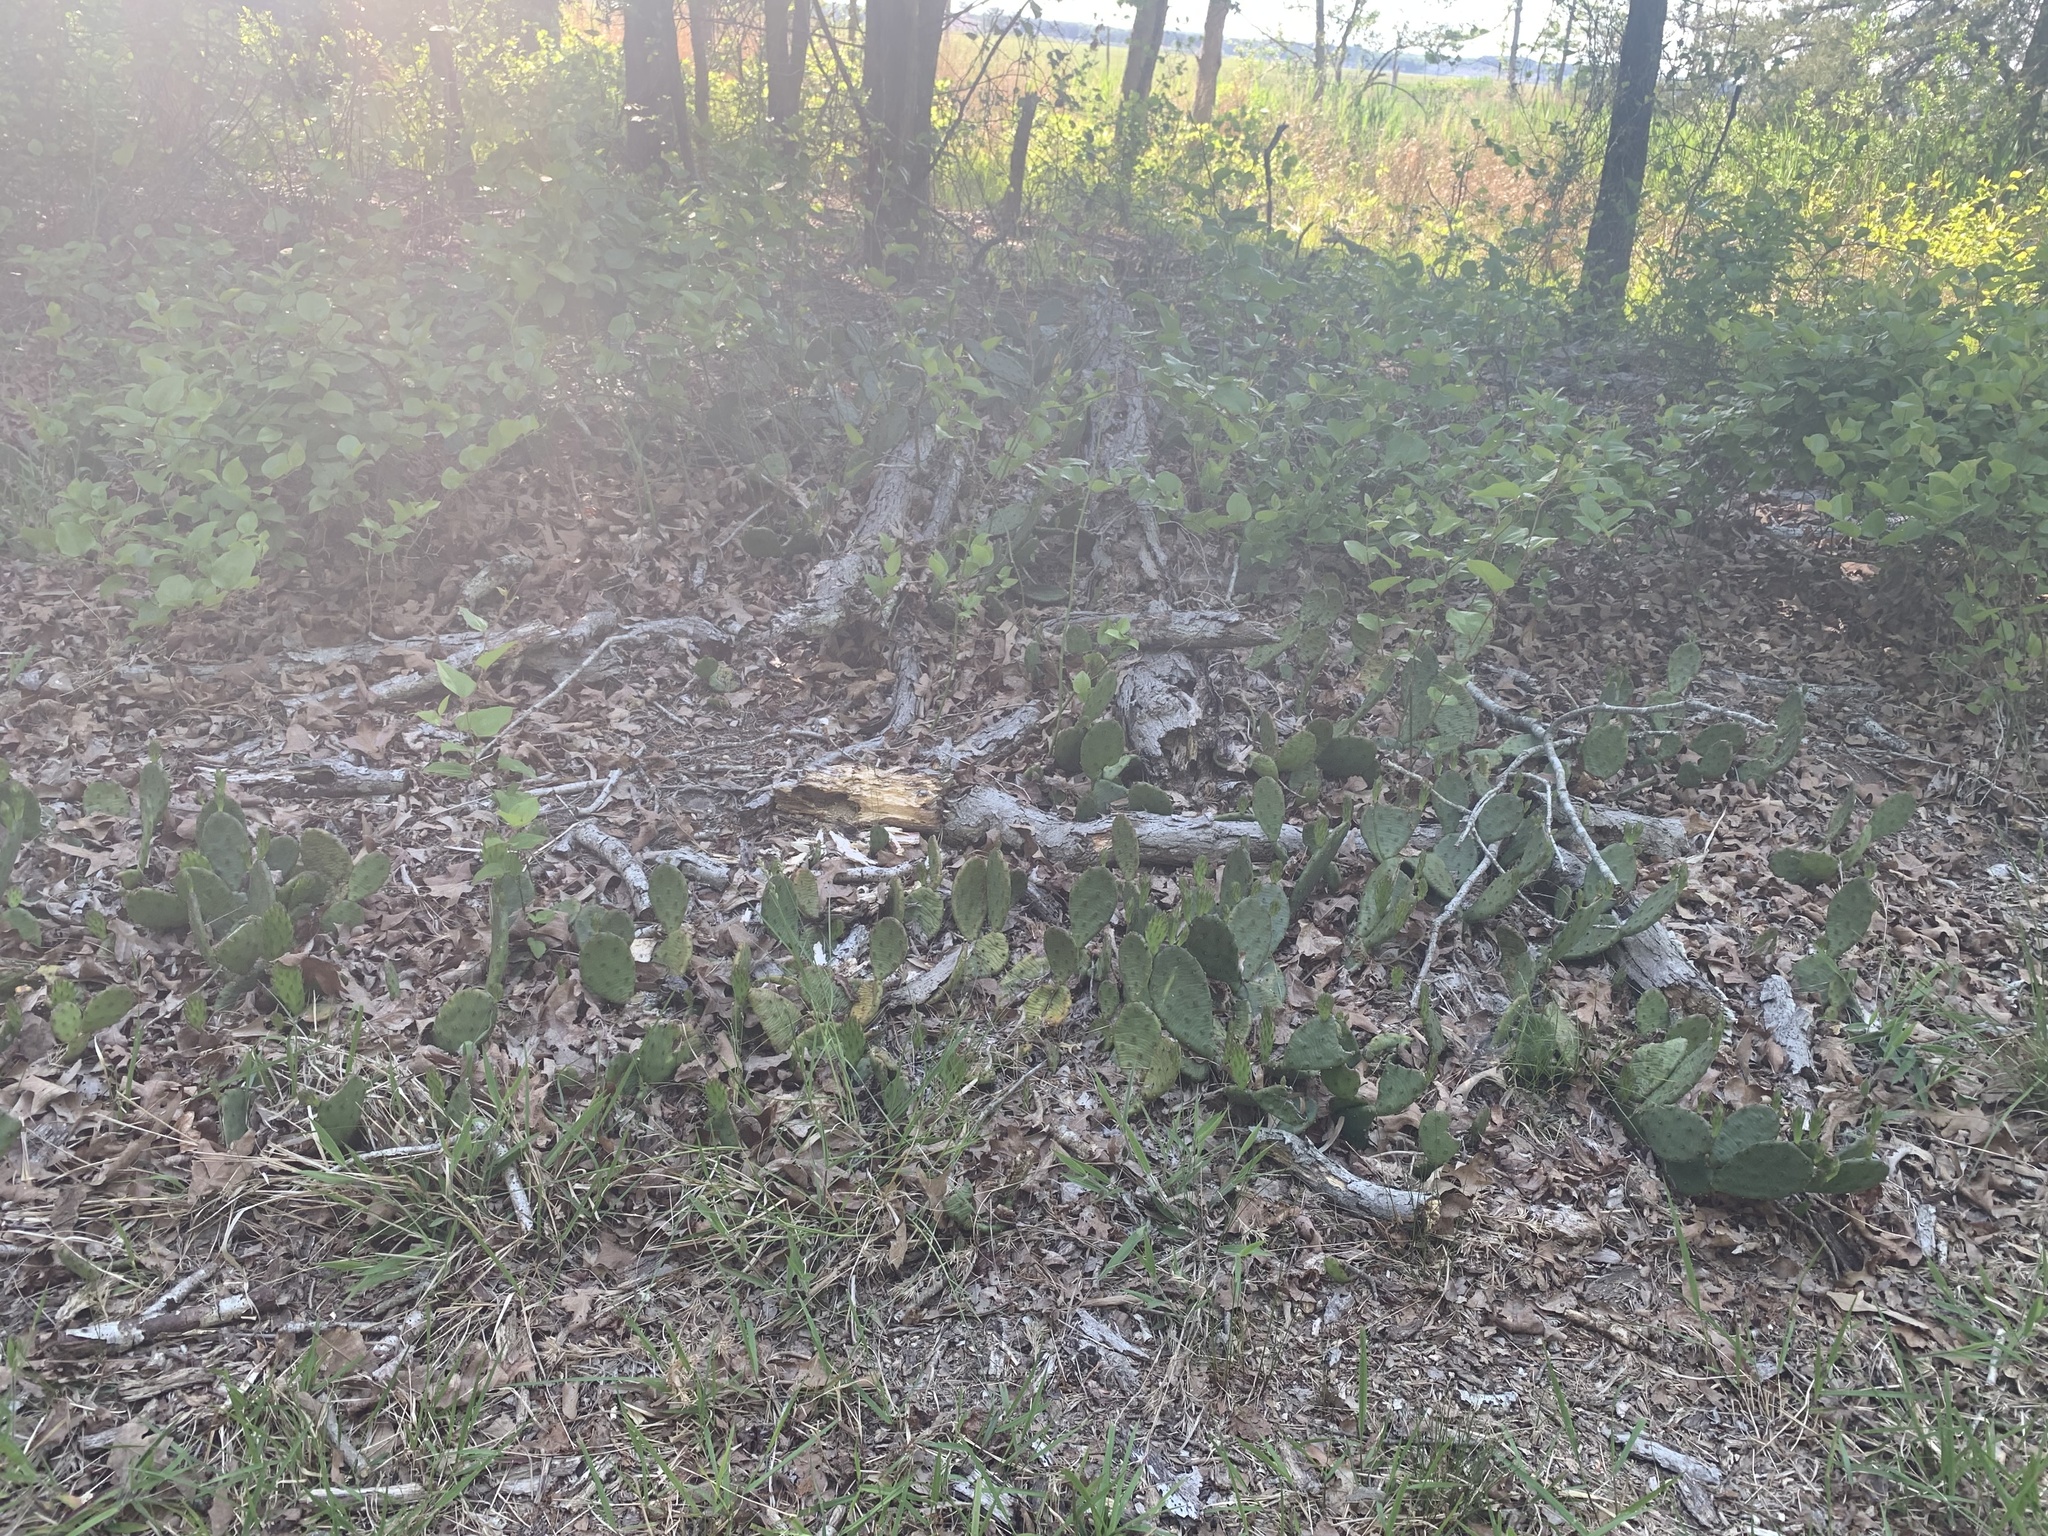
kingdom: Plantae
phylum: Tracheophyta
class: Magnoliopsida
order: Caryophyllales
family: Cactaceae
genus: Opuntia
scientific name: Opuntia humifusa
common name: Eastern prickly-pear
